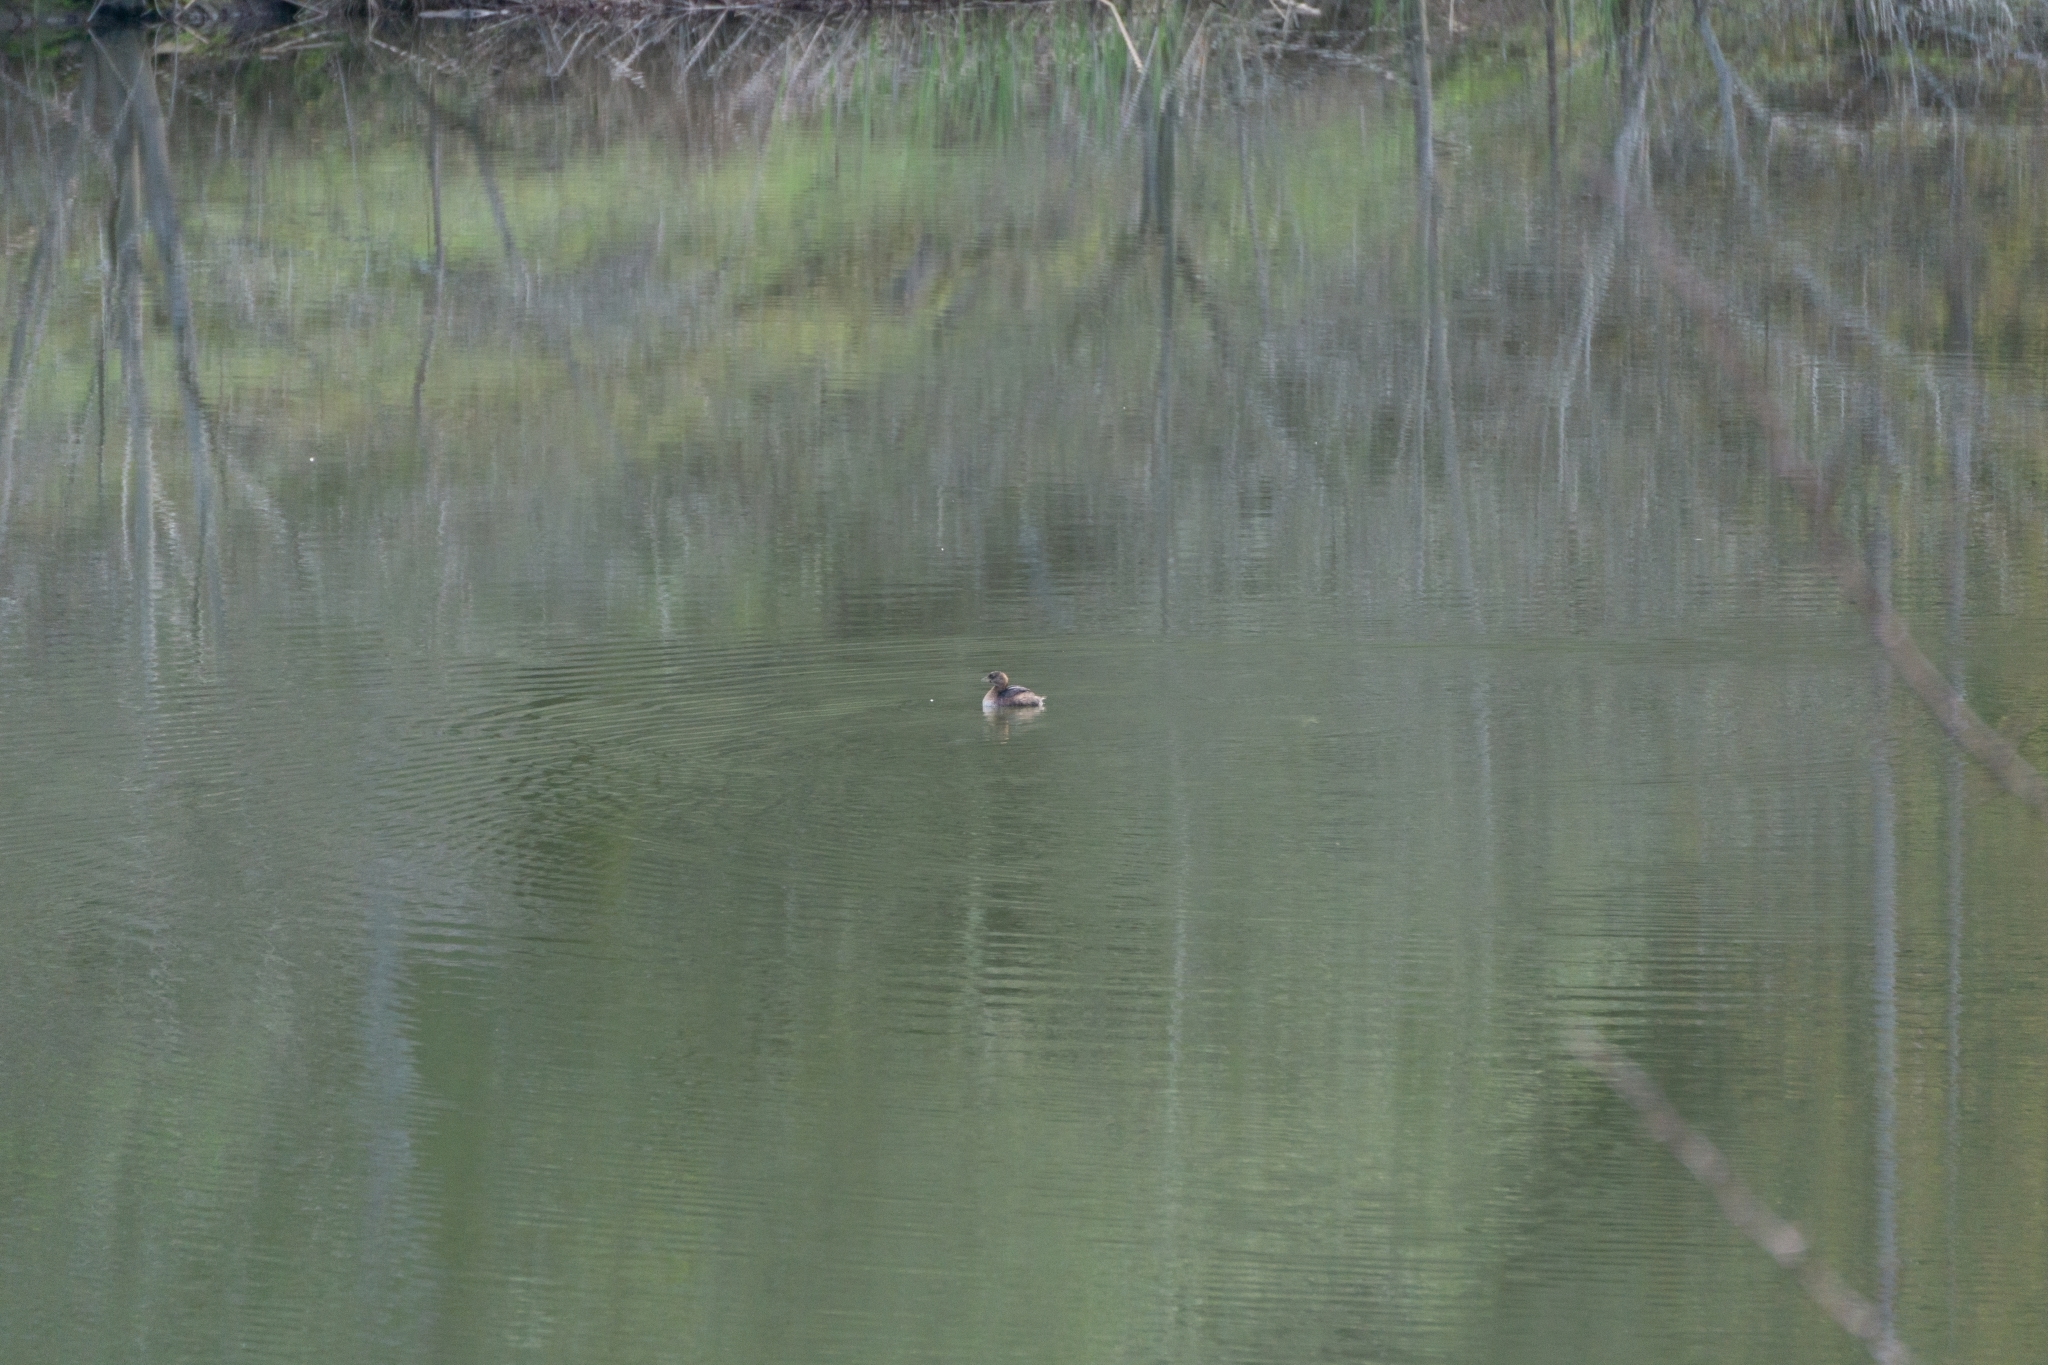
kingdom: Animalia
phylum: Chordata
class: Aves
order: Podicipediformes
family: Podicipedidae
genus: Podilymbus
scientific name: Podilymbus podiceps
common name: Pied-billed grebe
